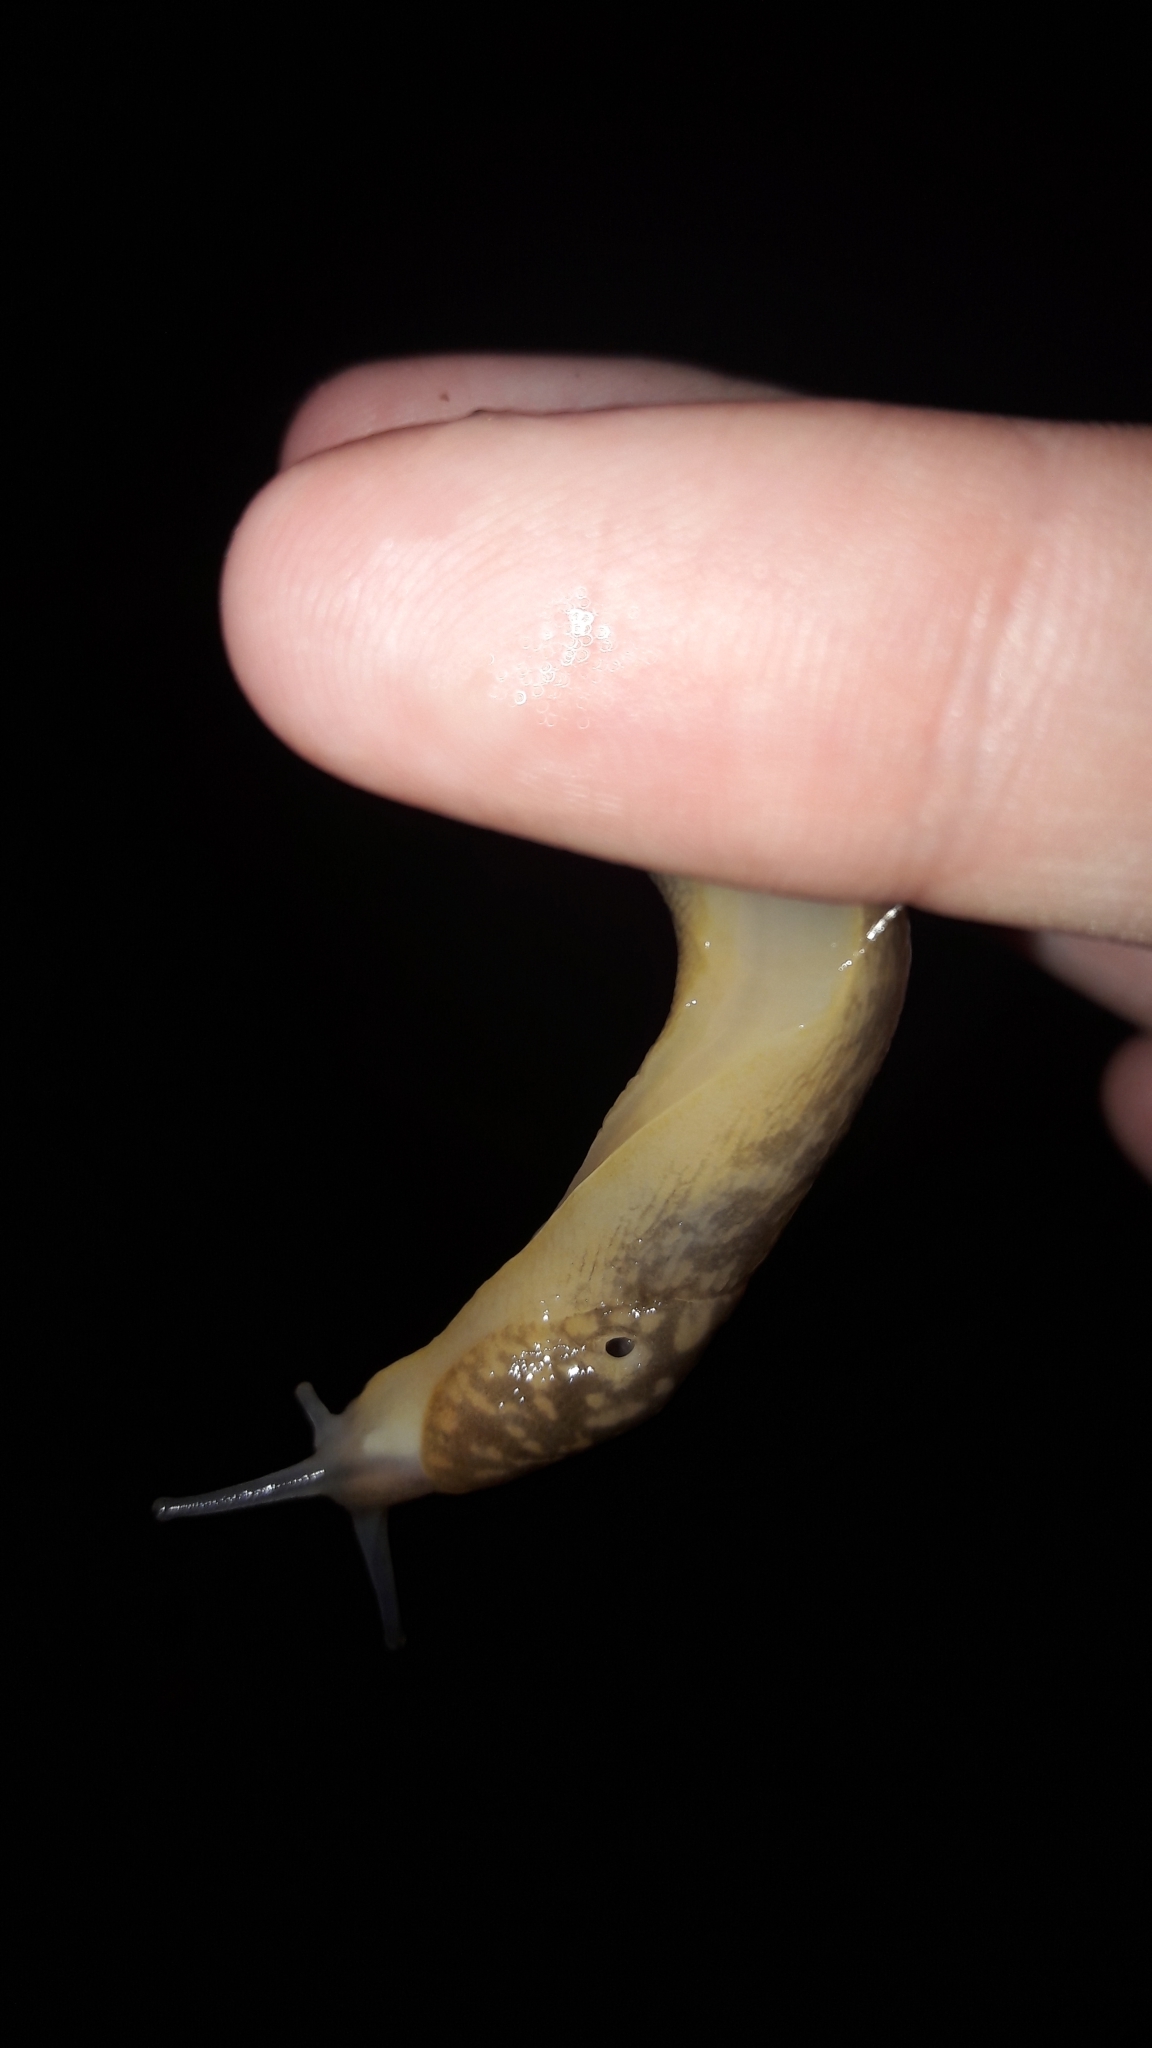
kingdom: Animalia
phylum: Mollusca
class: Gastropoda
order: Stylommatophora
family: Limacidae
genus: Limacus
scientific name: Limacus flavus
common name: Yellow gardenslug
